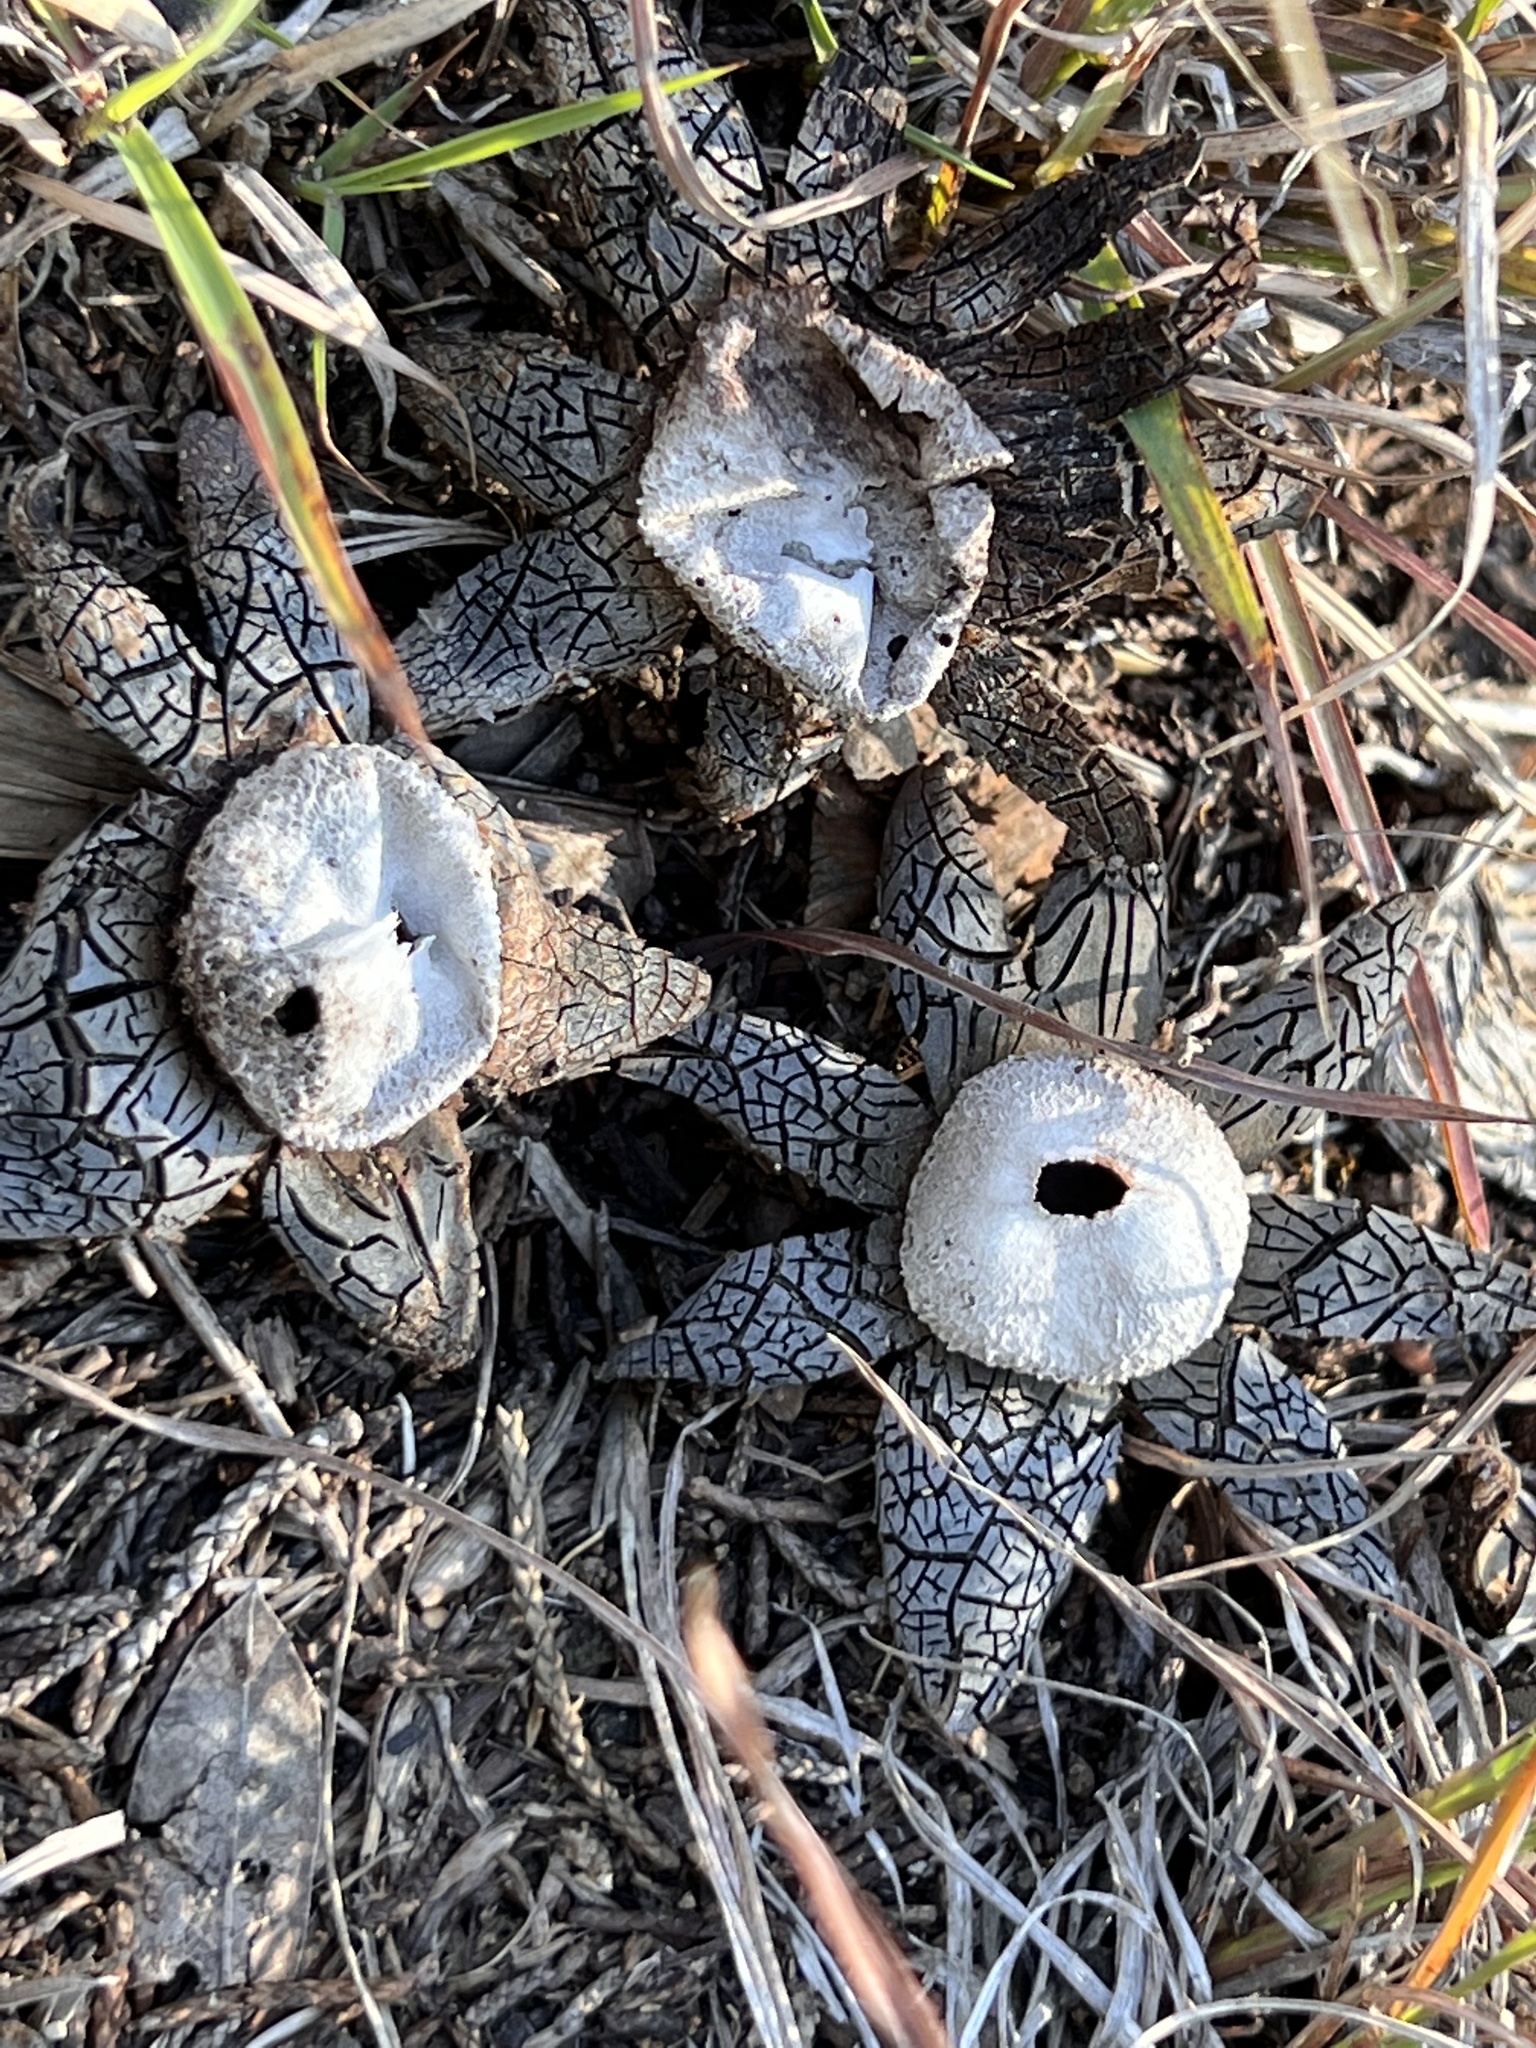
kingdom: Fungi
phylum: Basidiomycota
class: Agaricomycetes
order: Boletales
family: Diplocystidiaceae
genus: Astraeus
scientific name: Astraeus morganii
